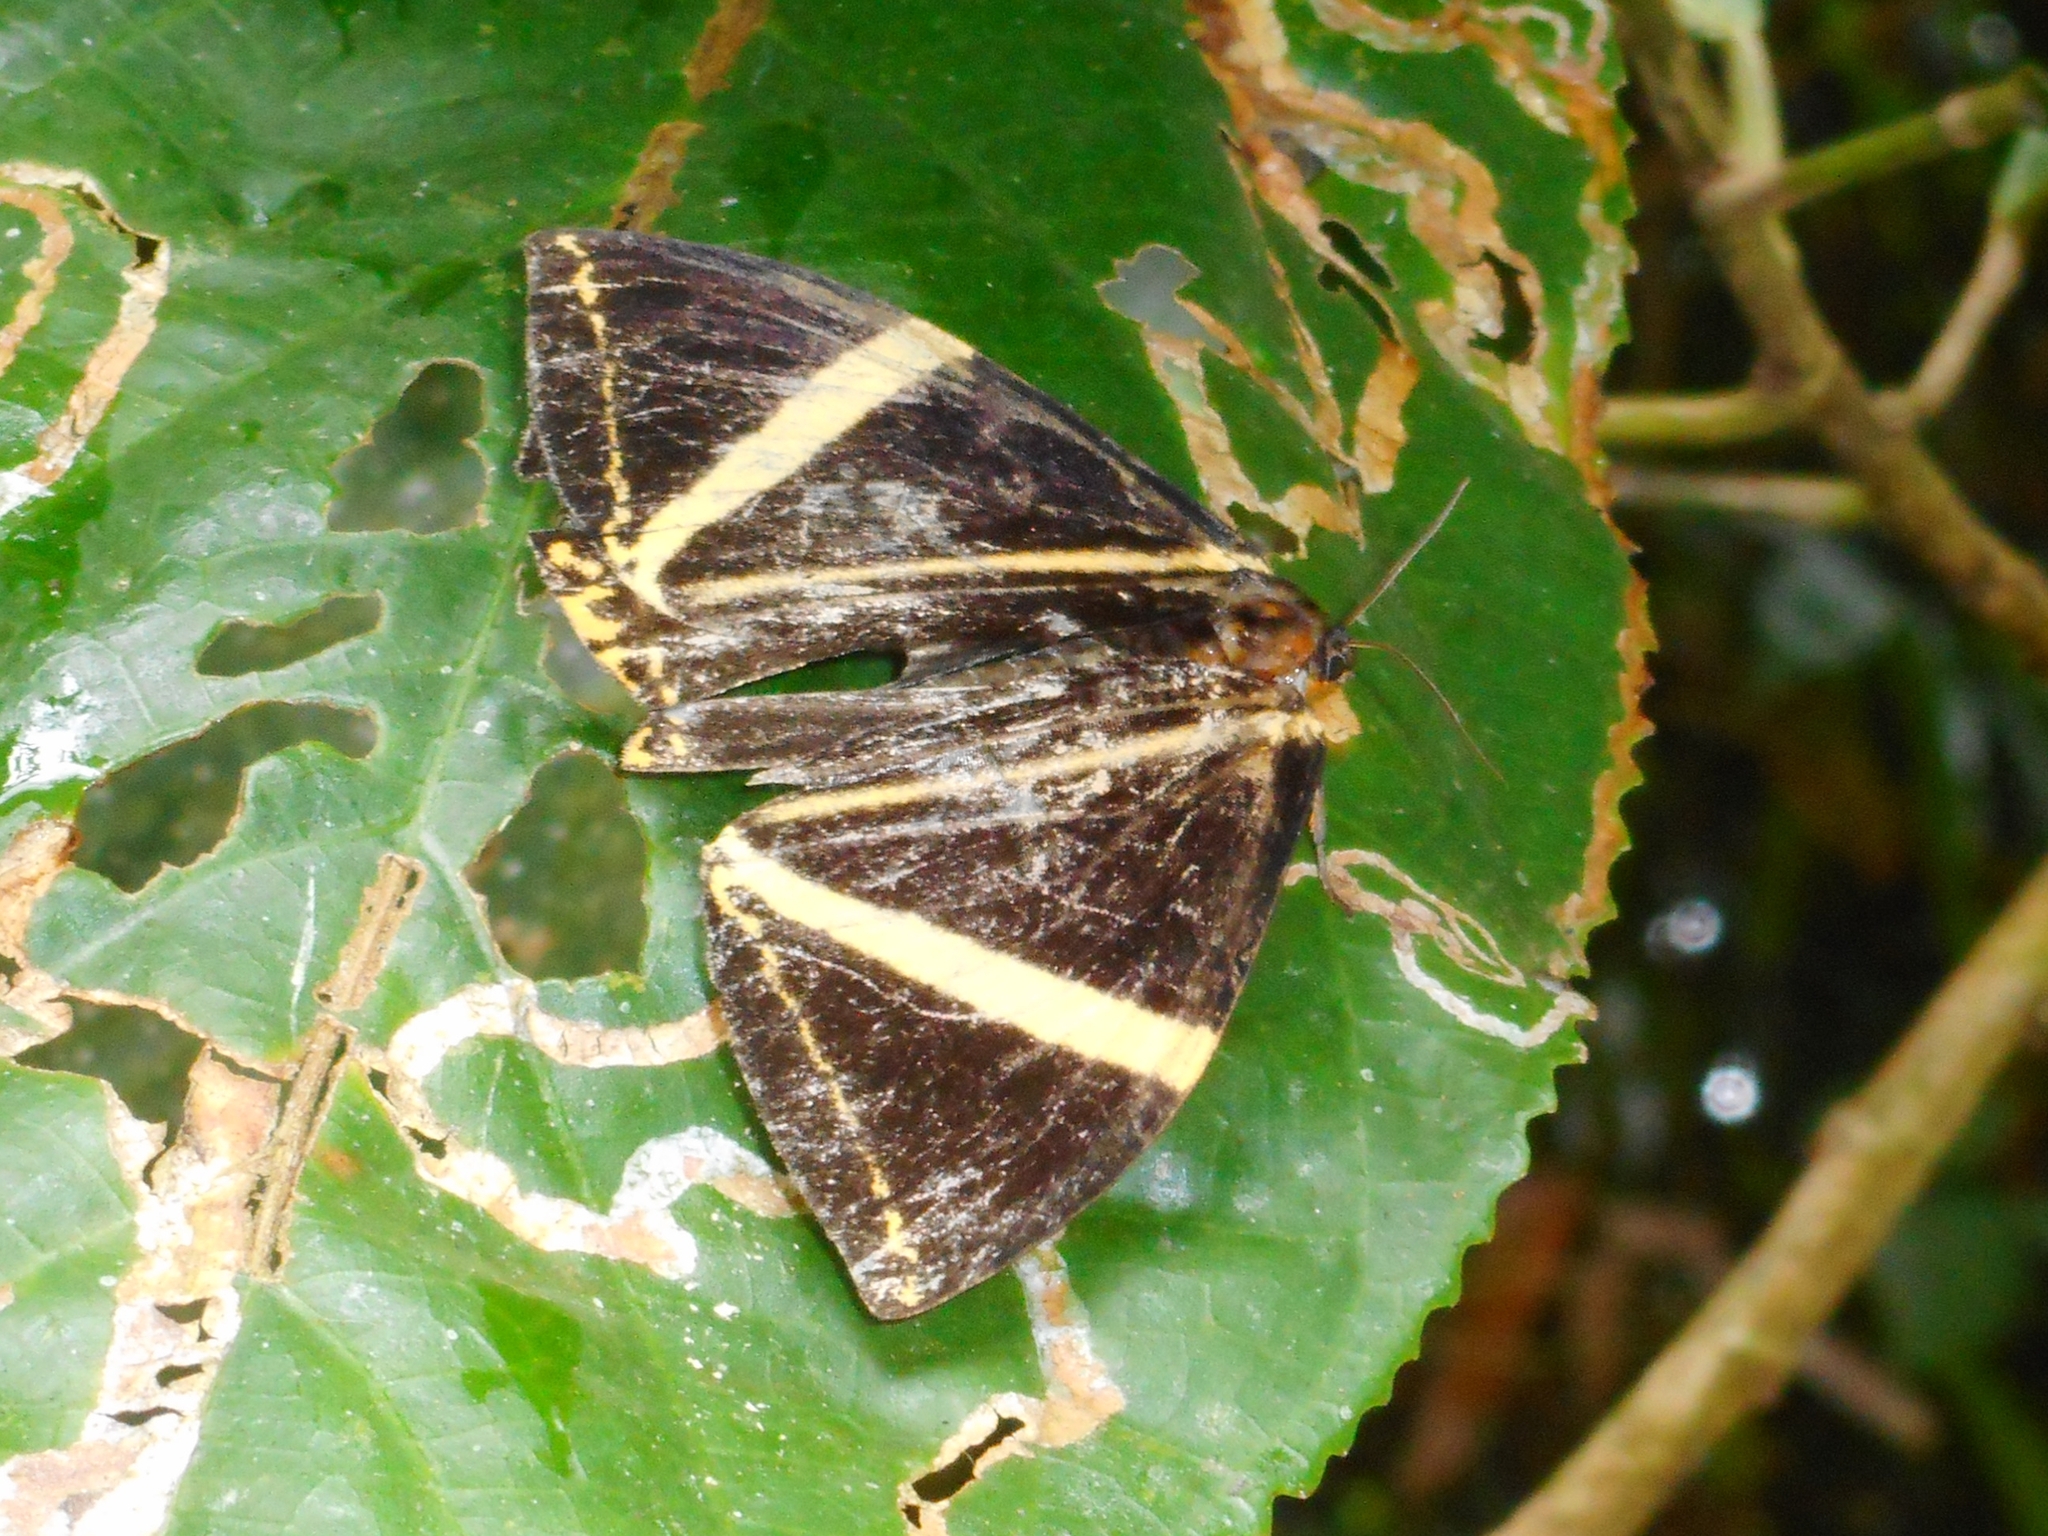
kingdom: Animalia
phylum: Arthropoda
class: Insecta
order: Lepidoptera
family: Epicopeiidae
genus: Amana
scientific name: Amana angulifera
